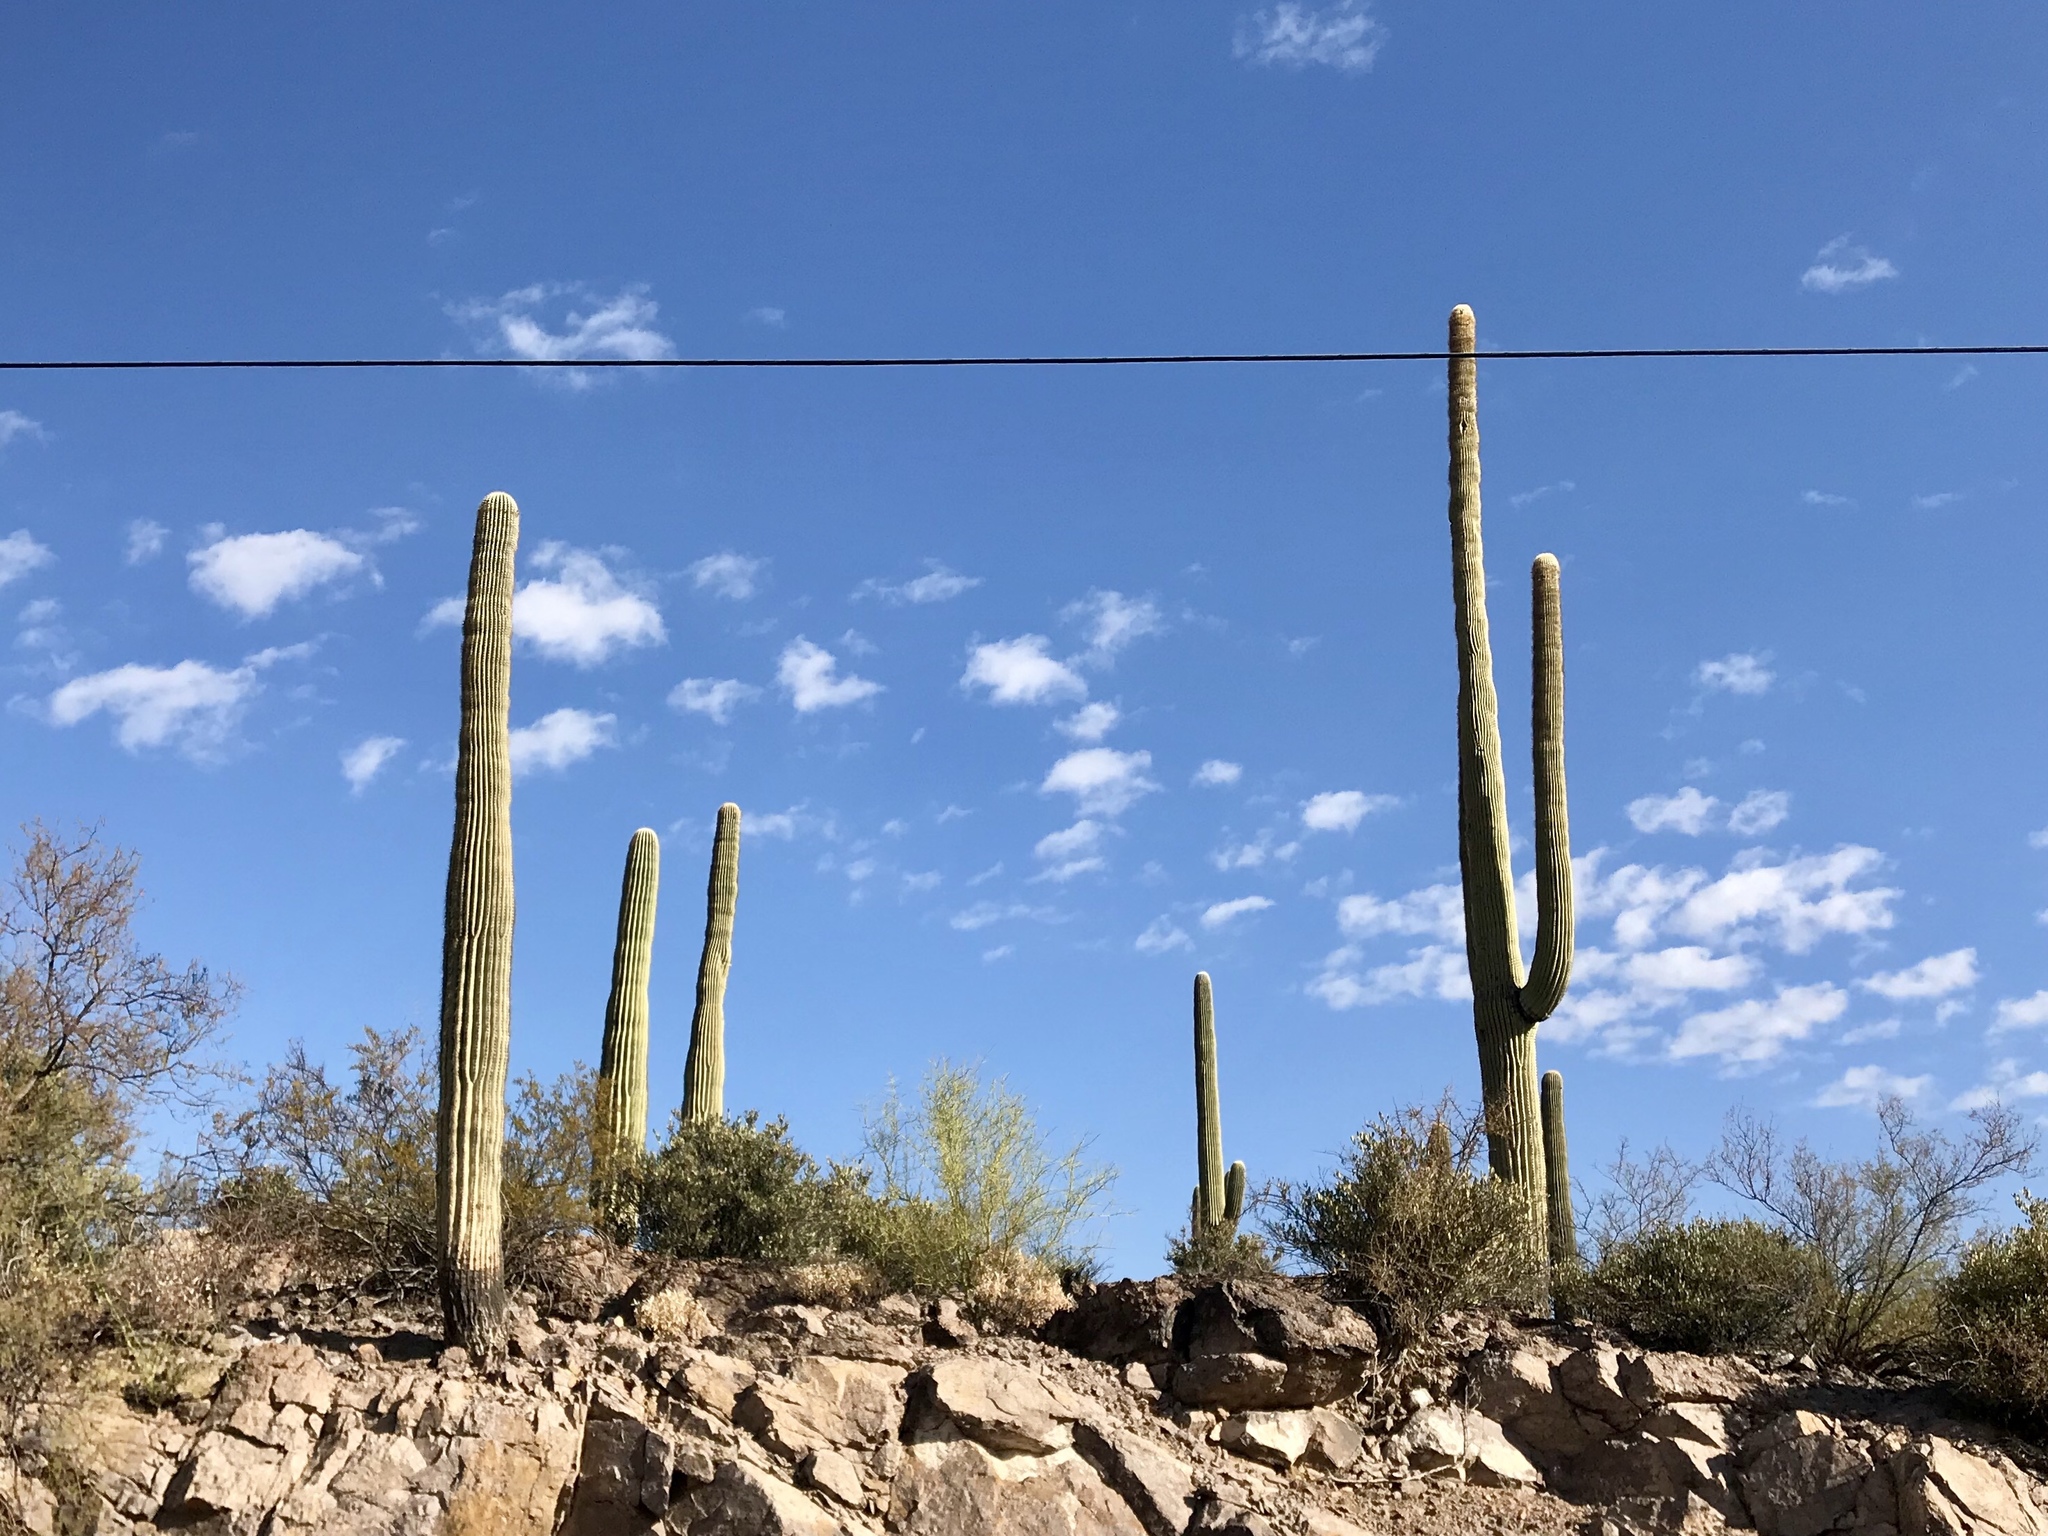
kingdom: Plantae
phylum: Tracheophyta
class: Magnoliopsida
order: Caryophyllales
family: Cactaceae
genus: Carnegiea
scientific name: Carnegiea gigantea
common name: Saguaro
